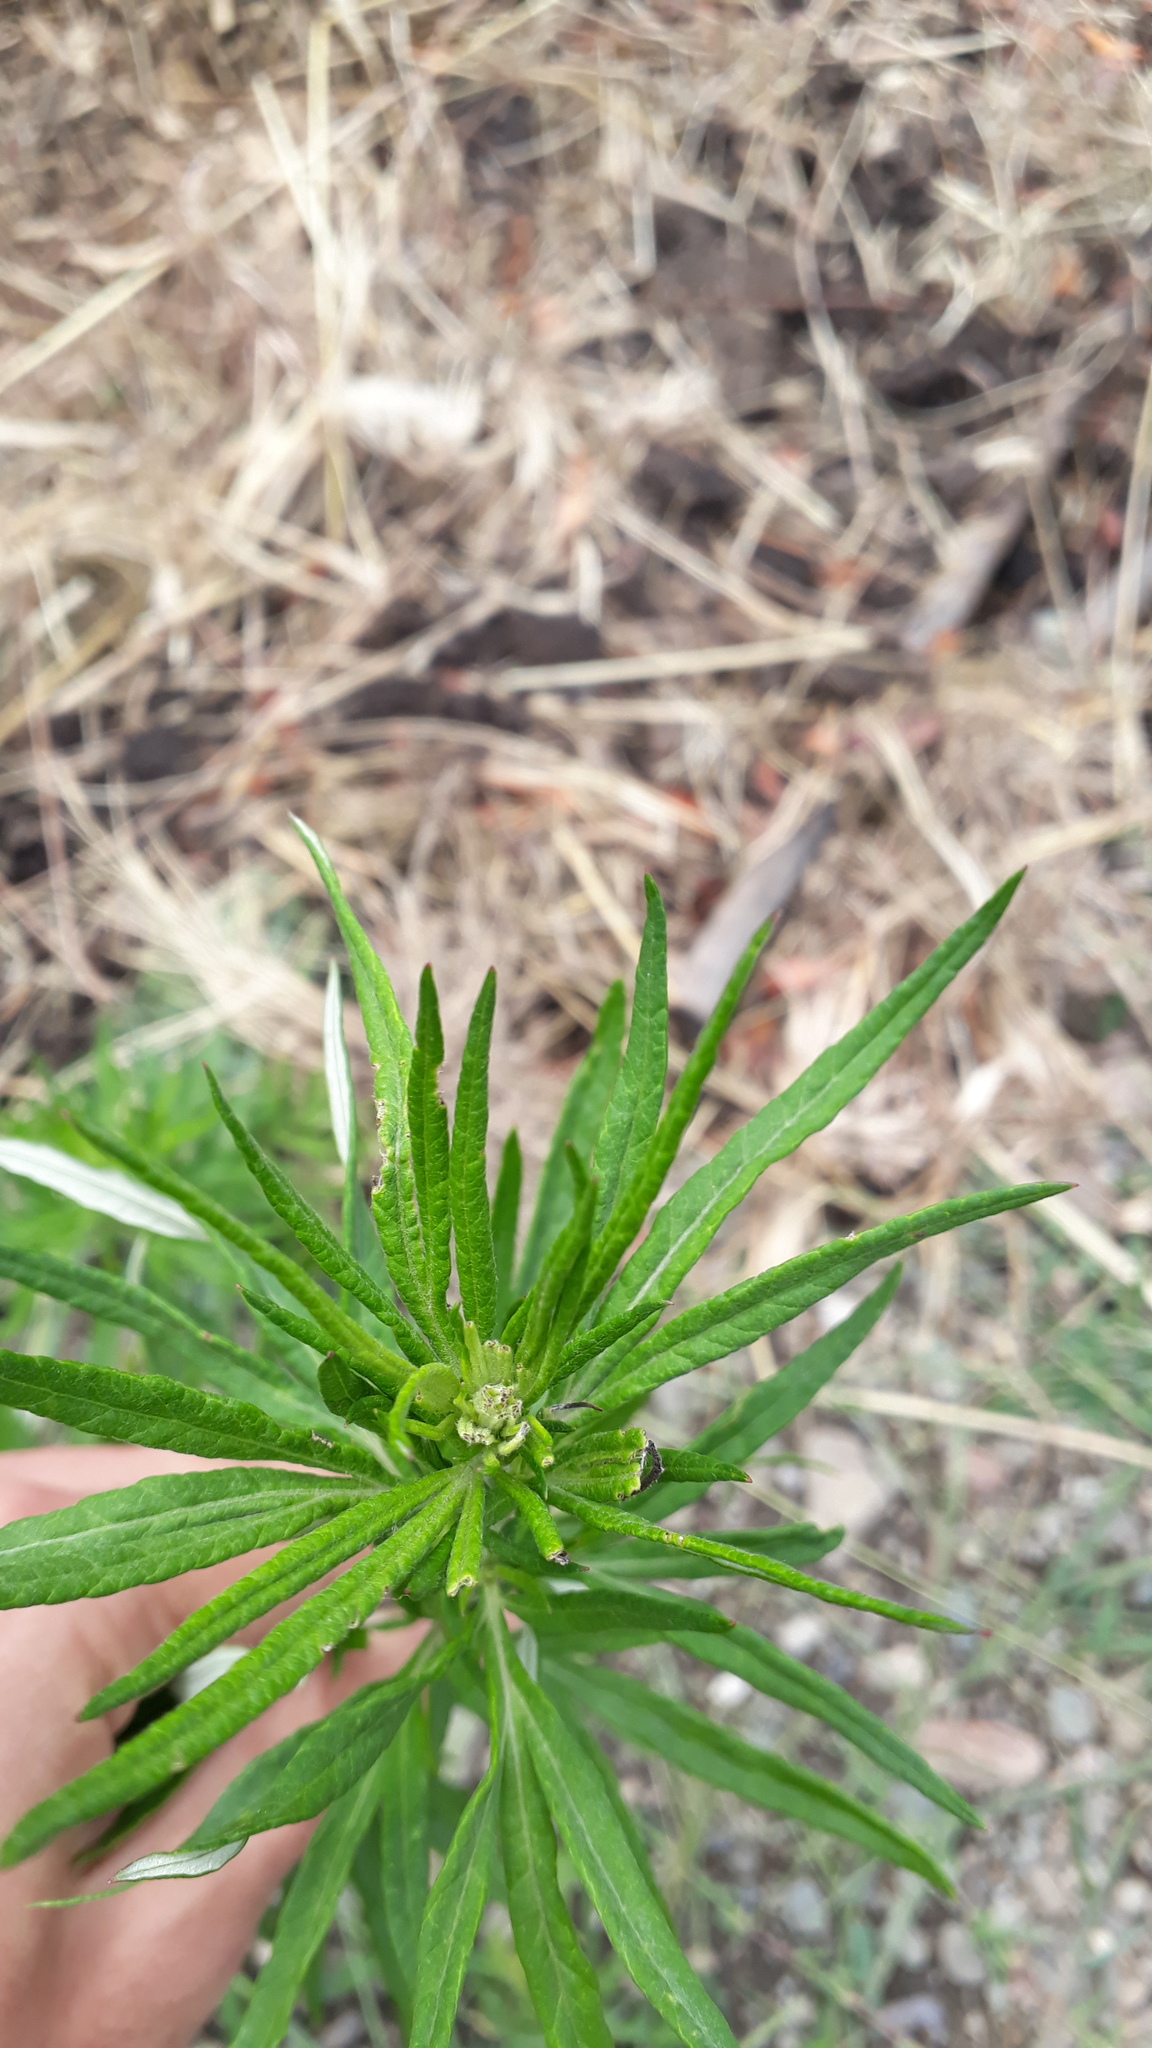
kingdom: Plantae
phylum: Tracheophyta
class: Magnoliopsida
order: Asterales
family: Asteraceae
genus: Artemisia
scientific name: Artemisia verlotiorum
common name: Chinese mugwort
